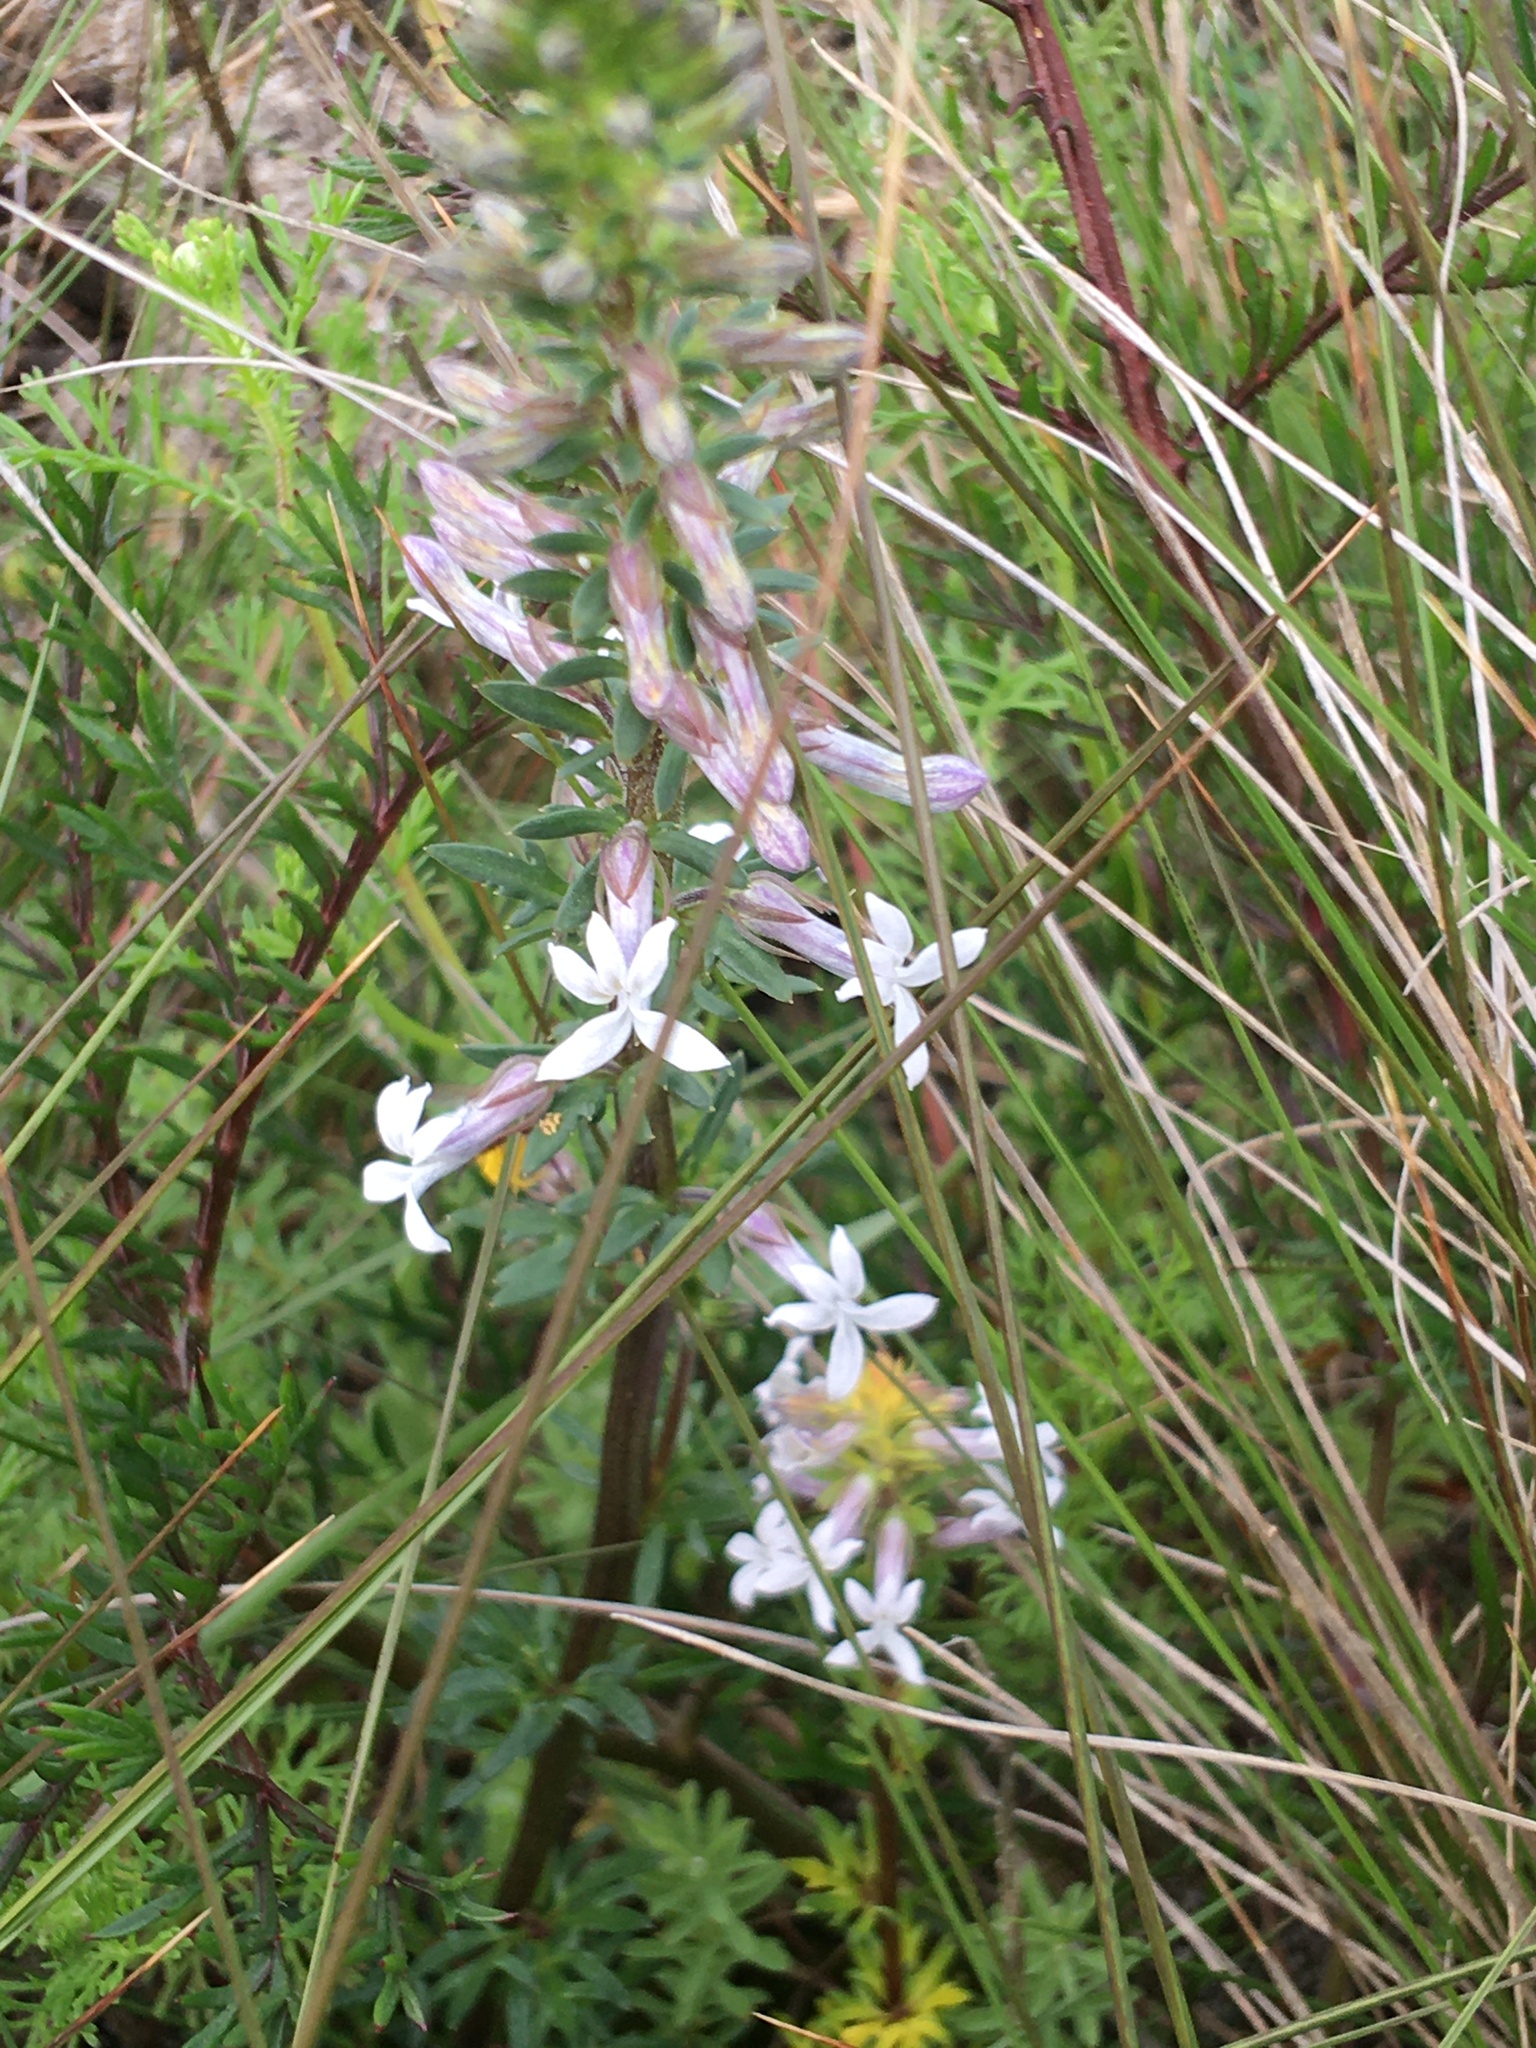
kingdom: Plantae
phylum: Tracheophyta
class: Magnoliopsida
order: Asterales
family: Campanulaceae
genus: Cyphia
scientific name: Cyphia bulbosa
